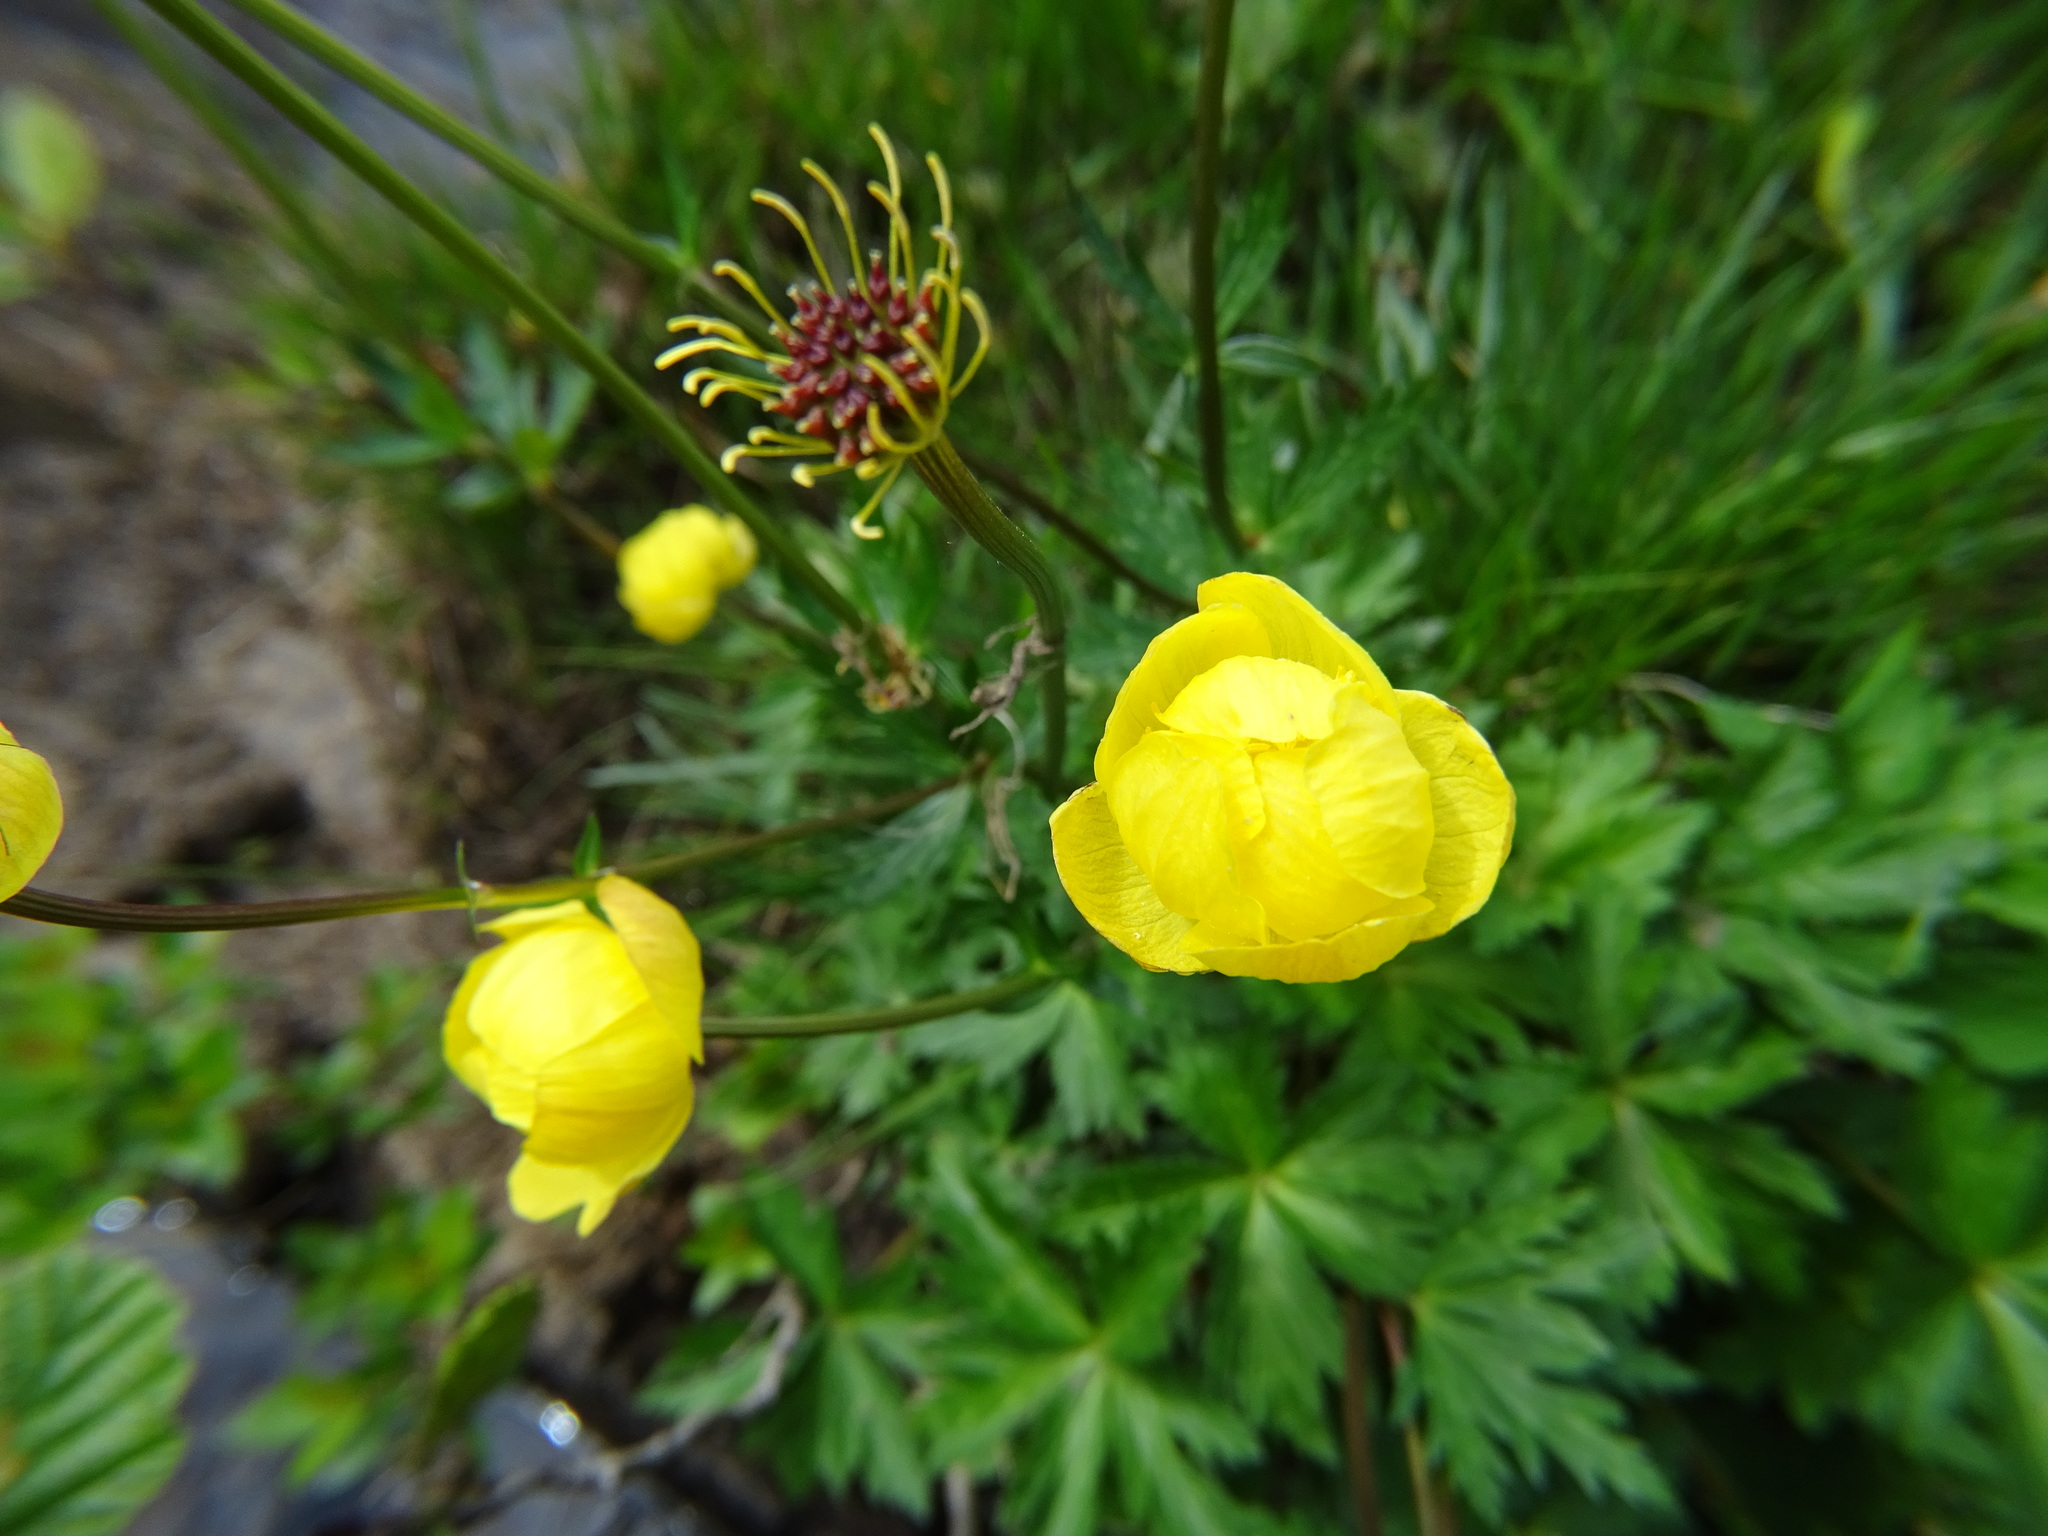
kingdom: Plantae
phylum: Tracheophyta
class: Magnoliopsida
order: Ranunculales
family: Ranunculaceae
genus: Trollius
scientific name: Trollius europaeus
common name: European globeflower
